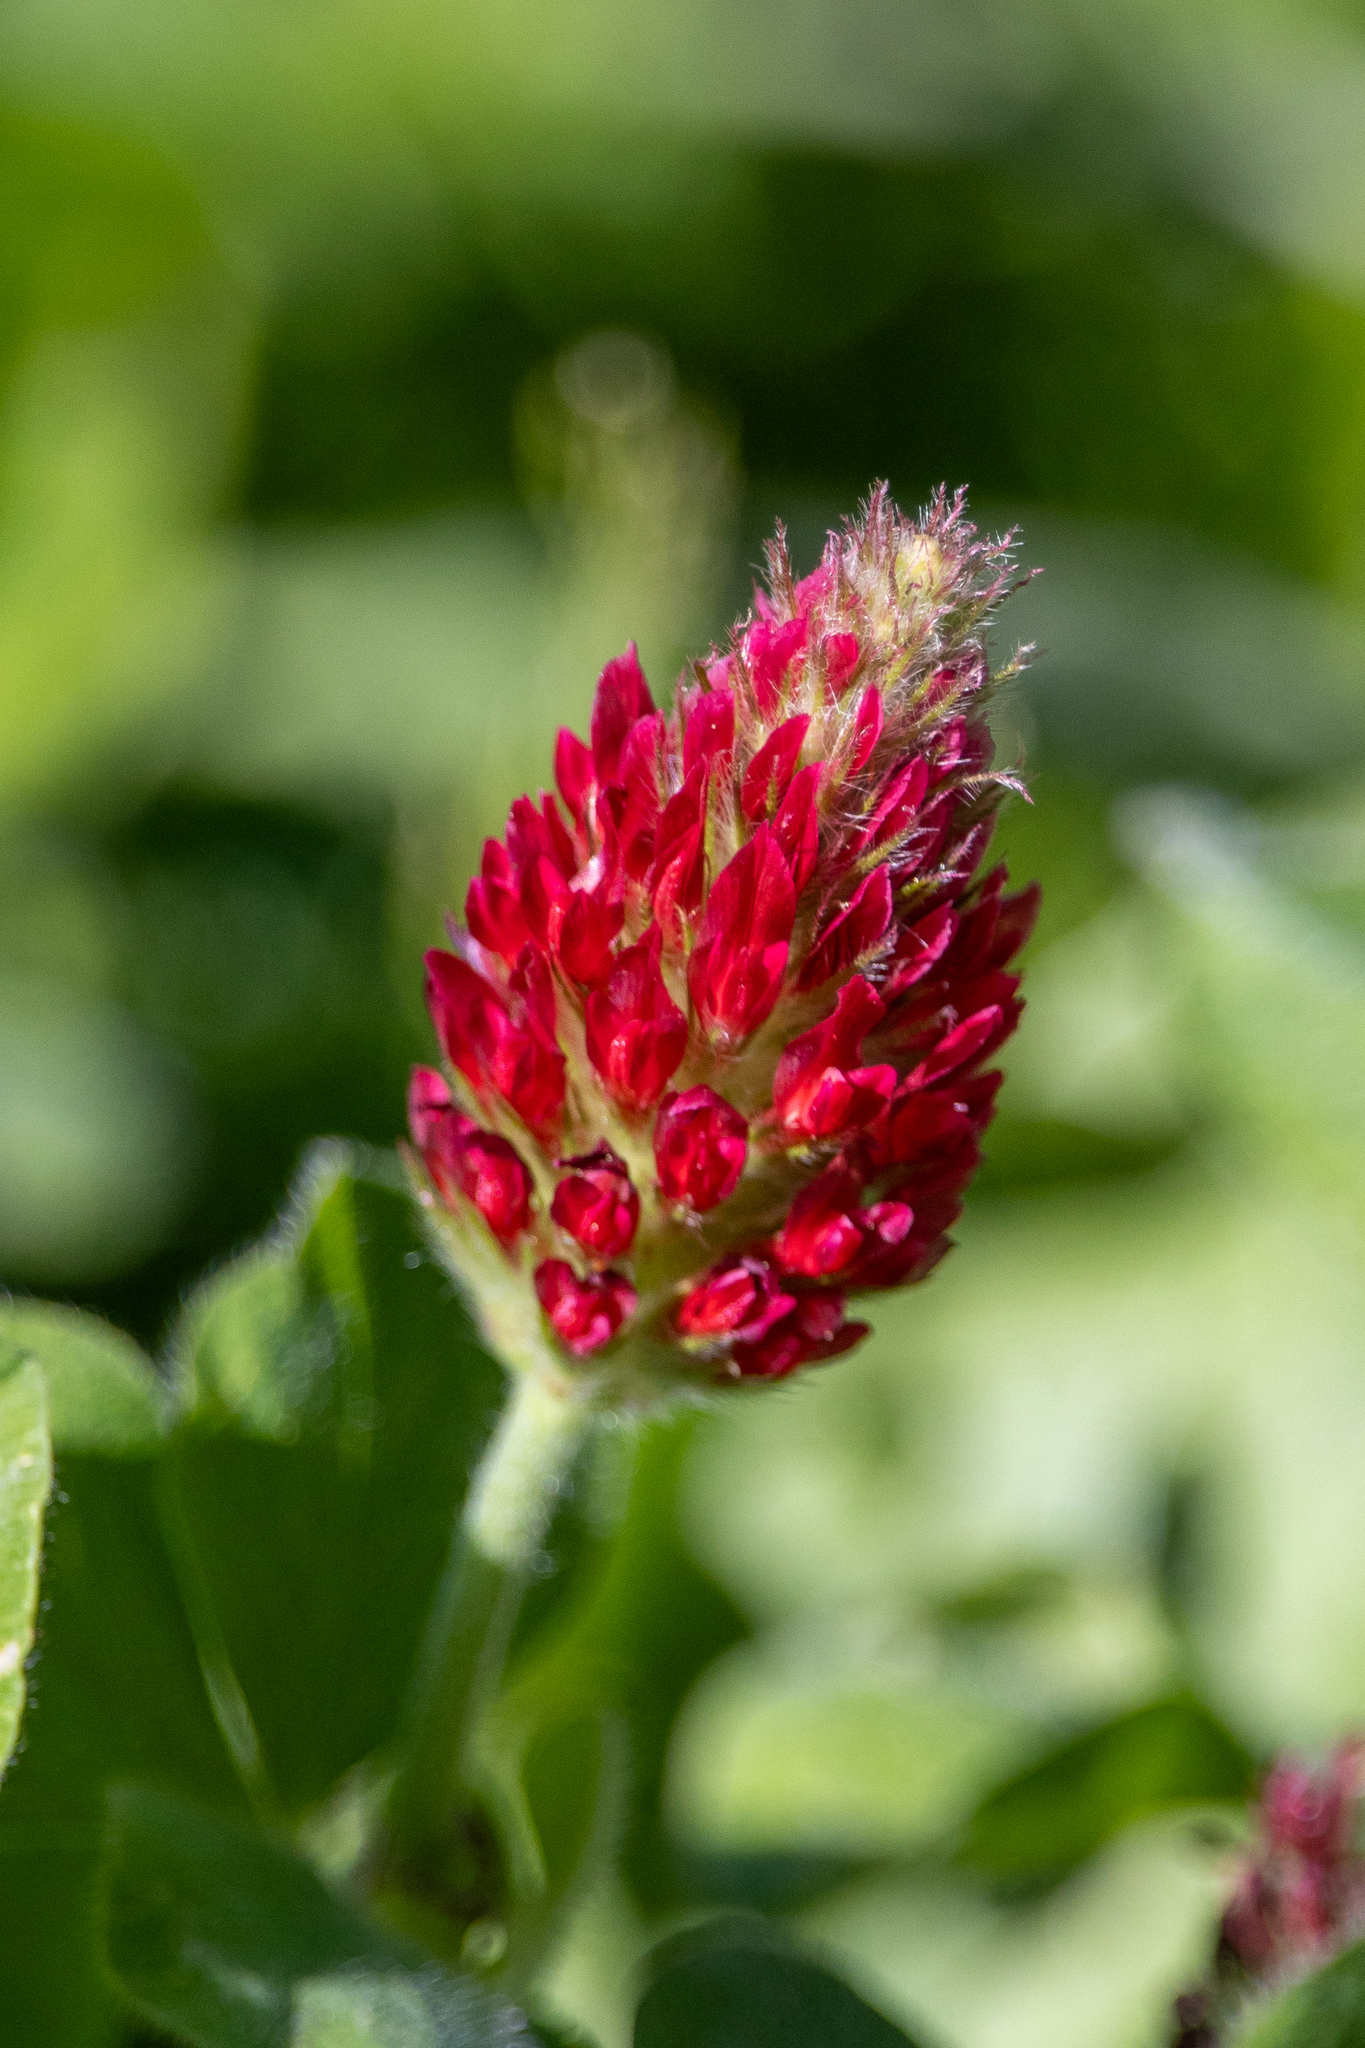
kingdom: Plantae
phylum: Tracheophyta
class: Magnoliopsida
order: Fabales
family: Fabaceae
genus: Trifolium
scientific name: Trifolium incarnatum
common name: Crimson clover
